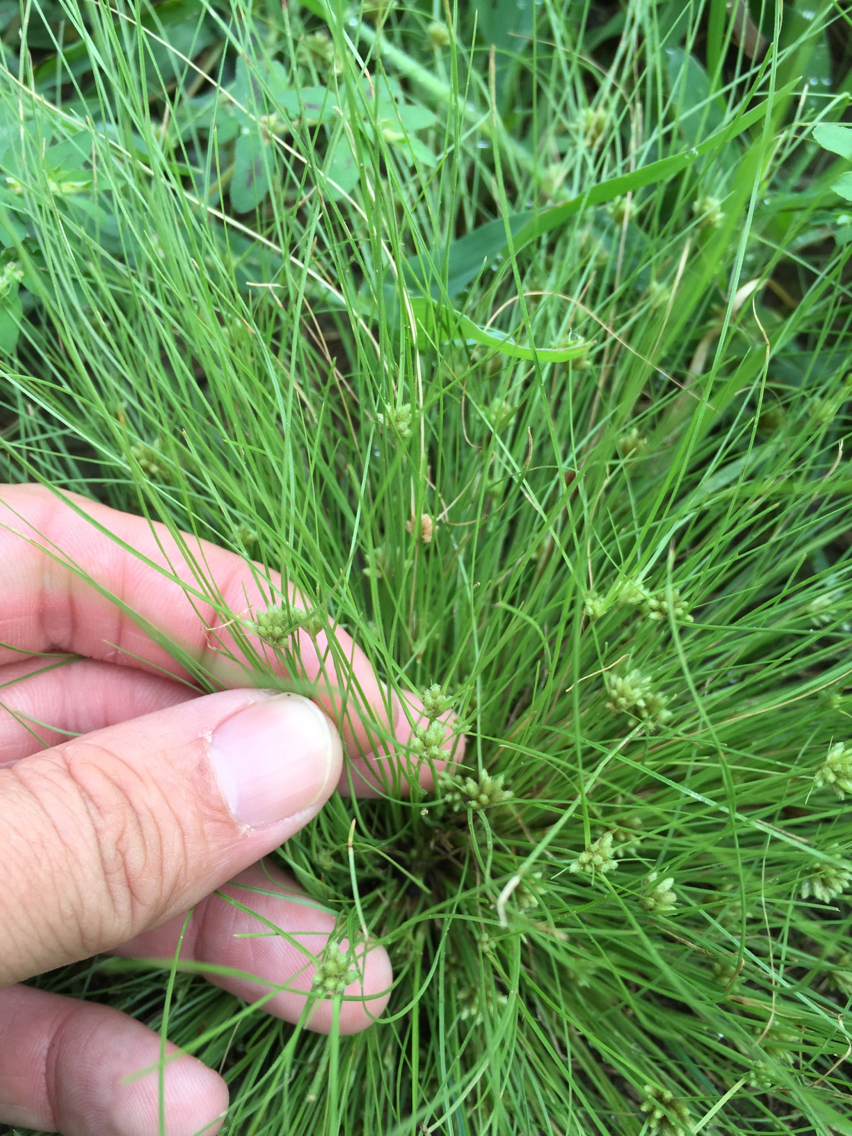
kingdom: Plantae
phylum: Tracheophyta
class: Liliopsida
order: Poales
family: Cyperaceae
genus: Fimbristylis
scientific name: Fimbristylis vahlii
